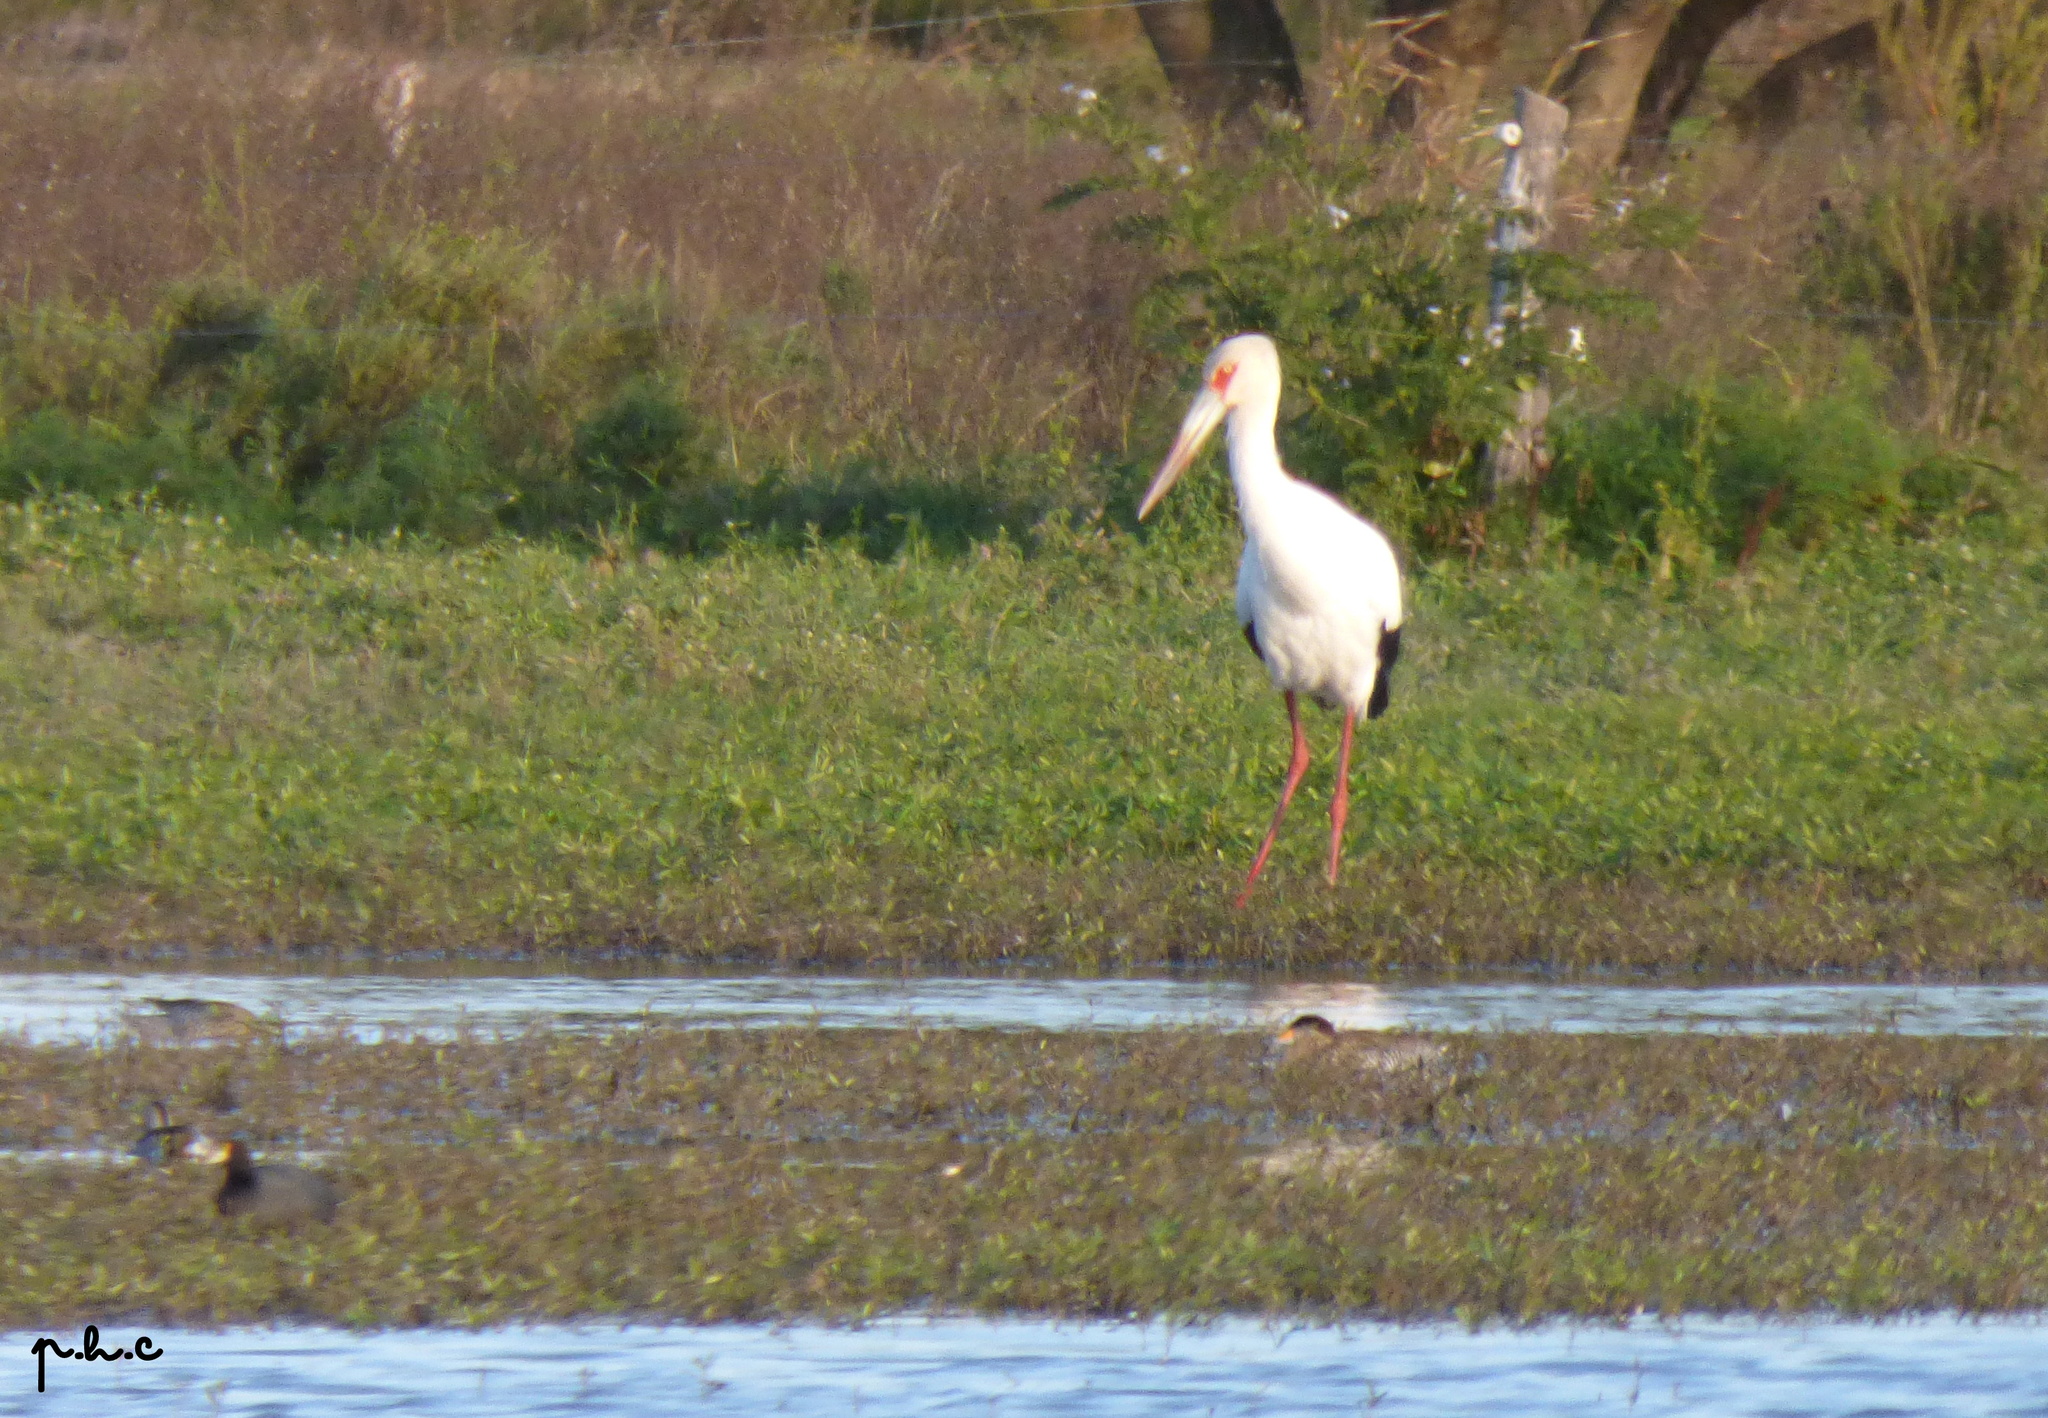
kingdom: Animalia
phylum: Chordata
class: Aves
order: Ciconiiformes
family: Ciconiidae
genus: Ciconia
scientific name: Ciconia maguari
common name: Maguari stork
